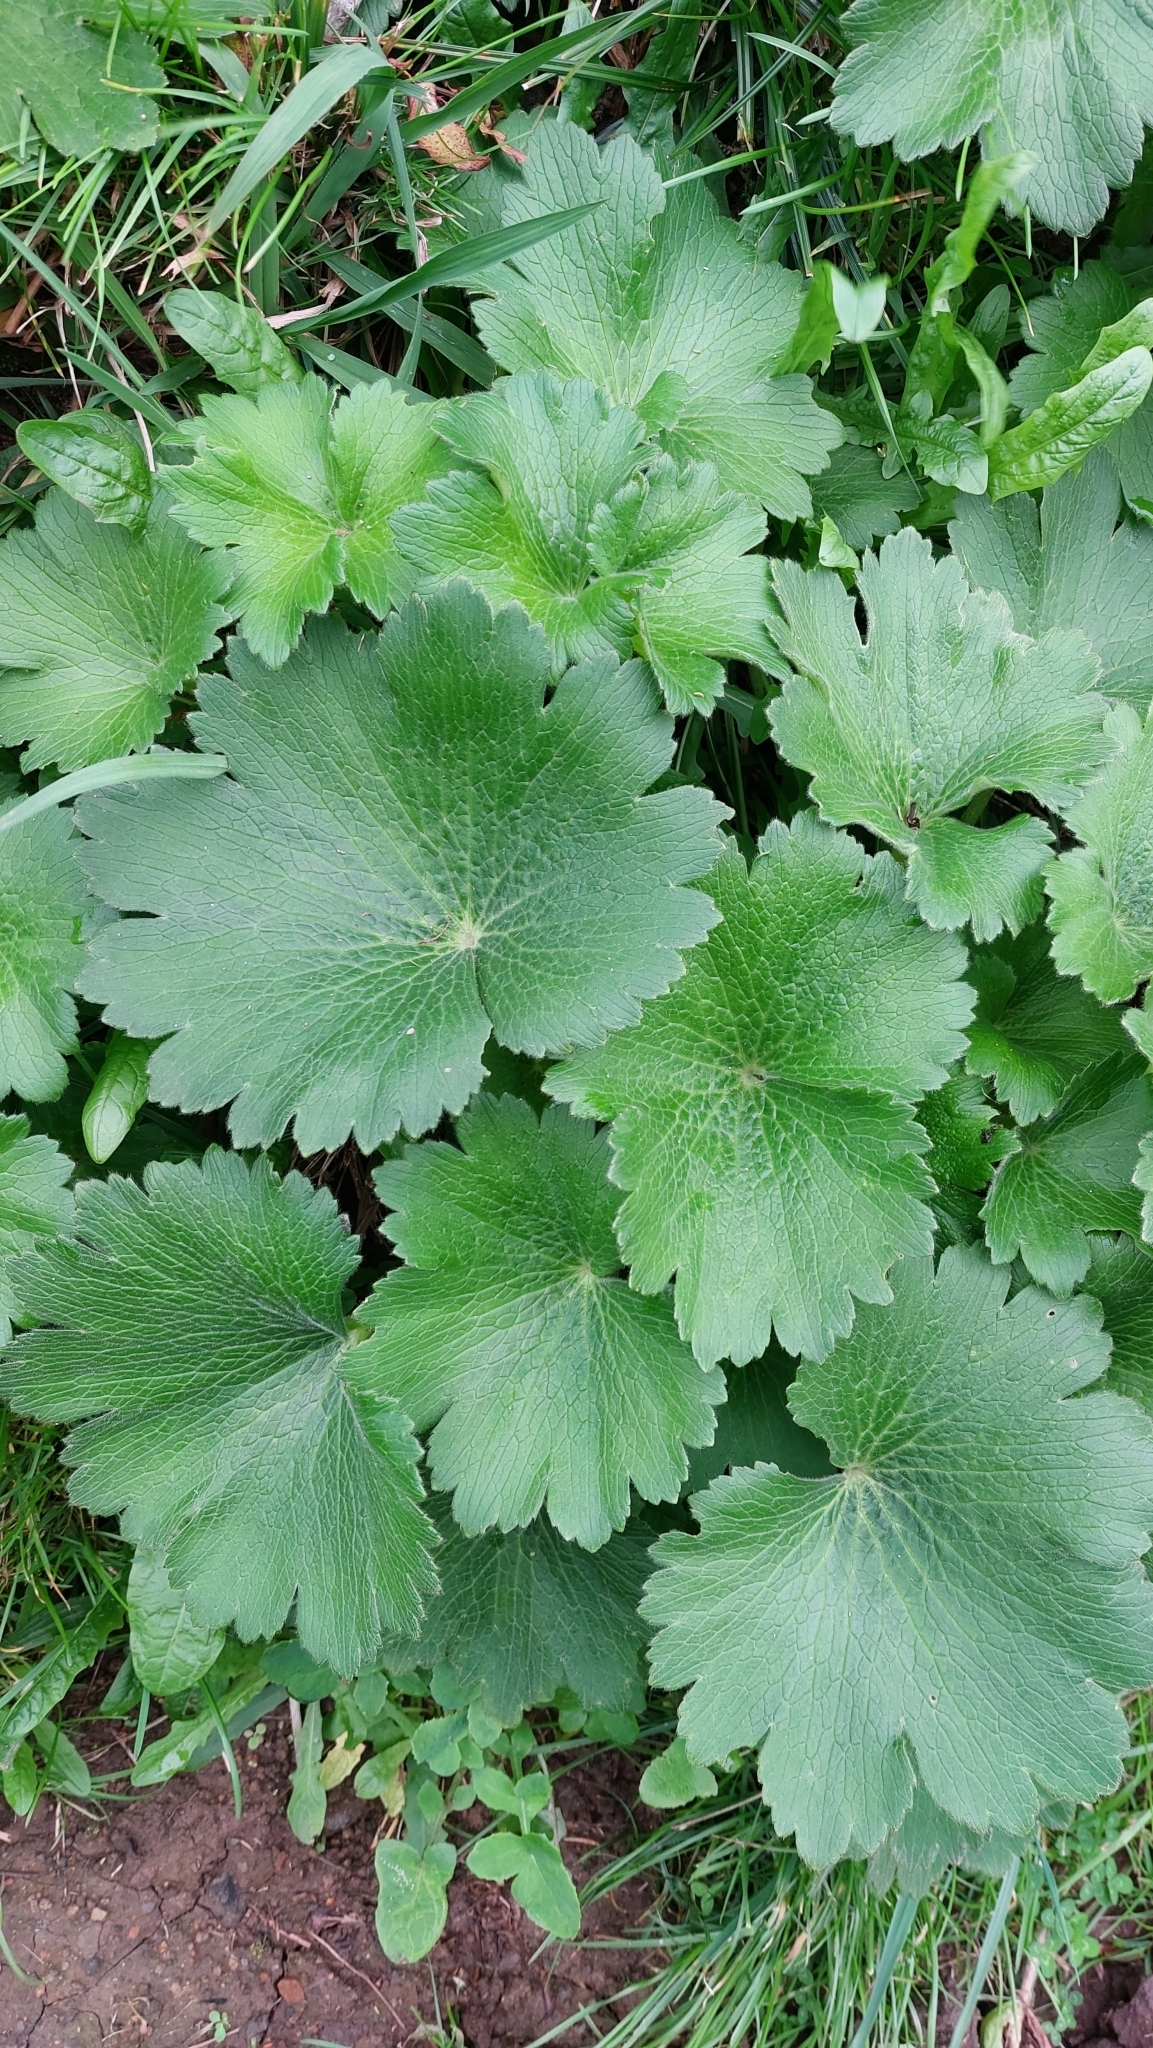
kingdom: Plantae
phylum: Tracheophyta
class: Magnoliopsida
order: Ranunculales
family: Ranunculaceae
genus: Ranunculus
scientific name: Ranunculus cortusifolius
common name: Azores buttercup
